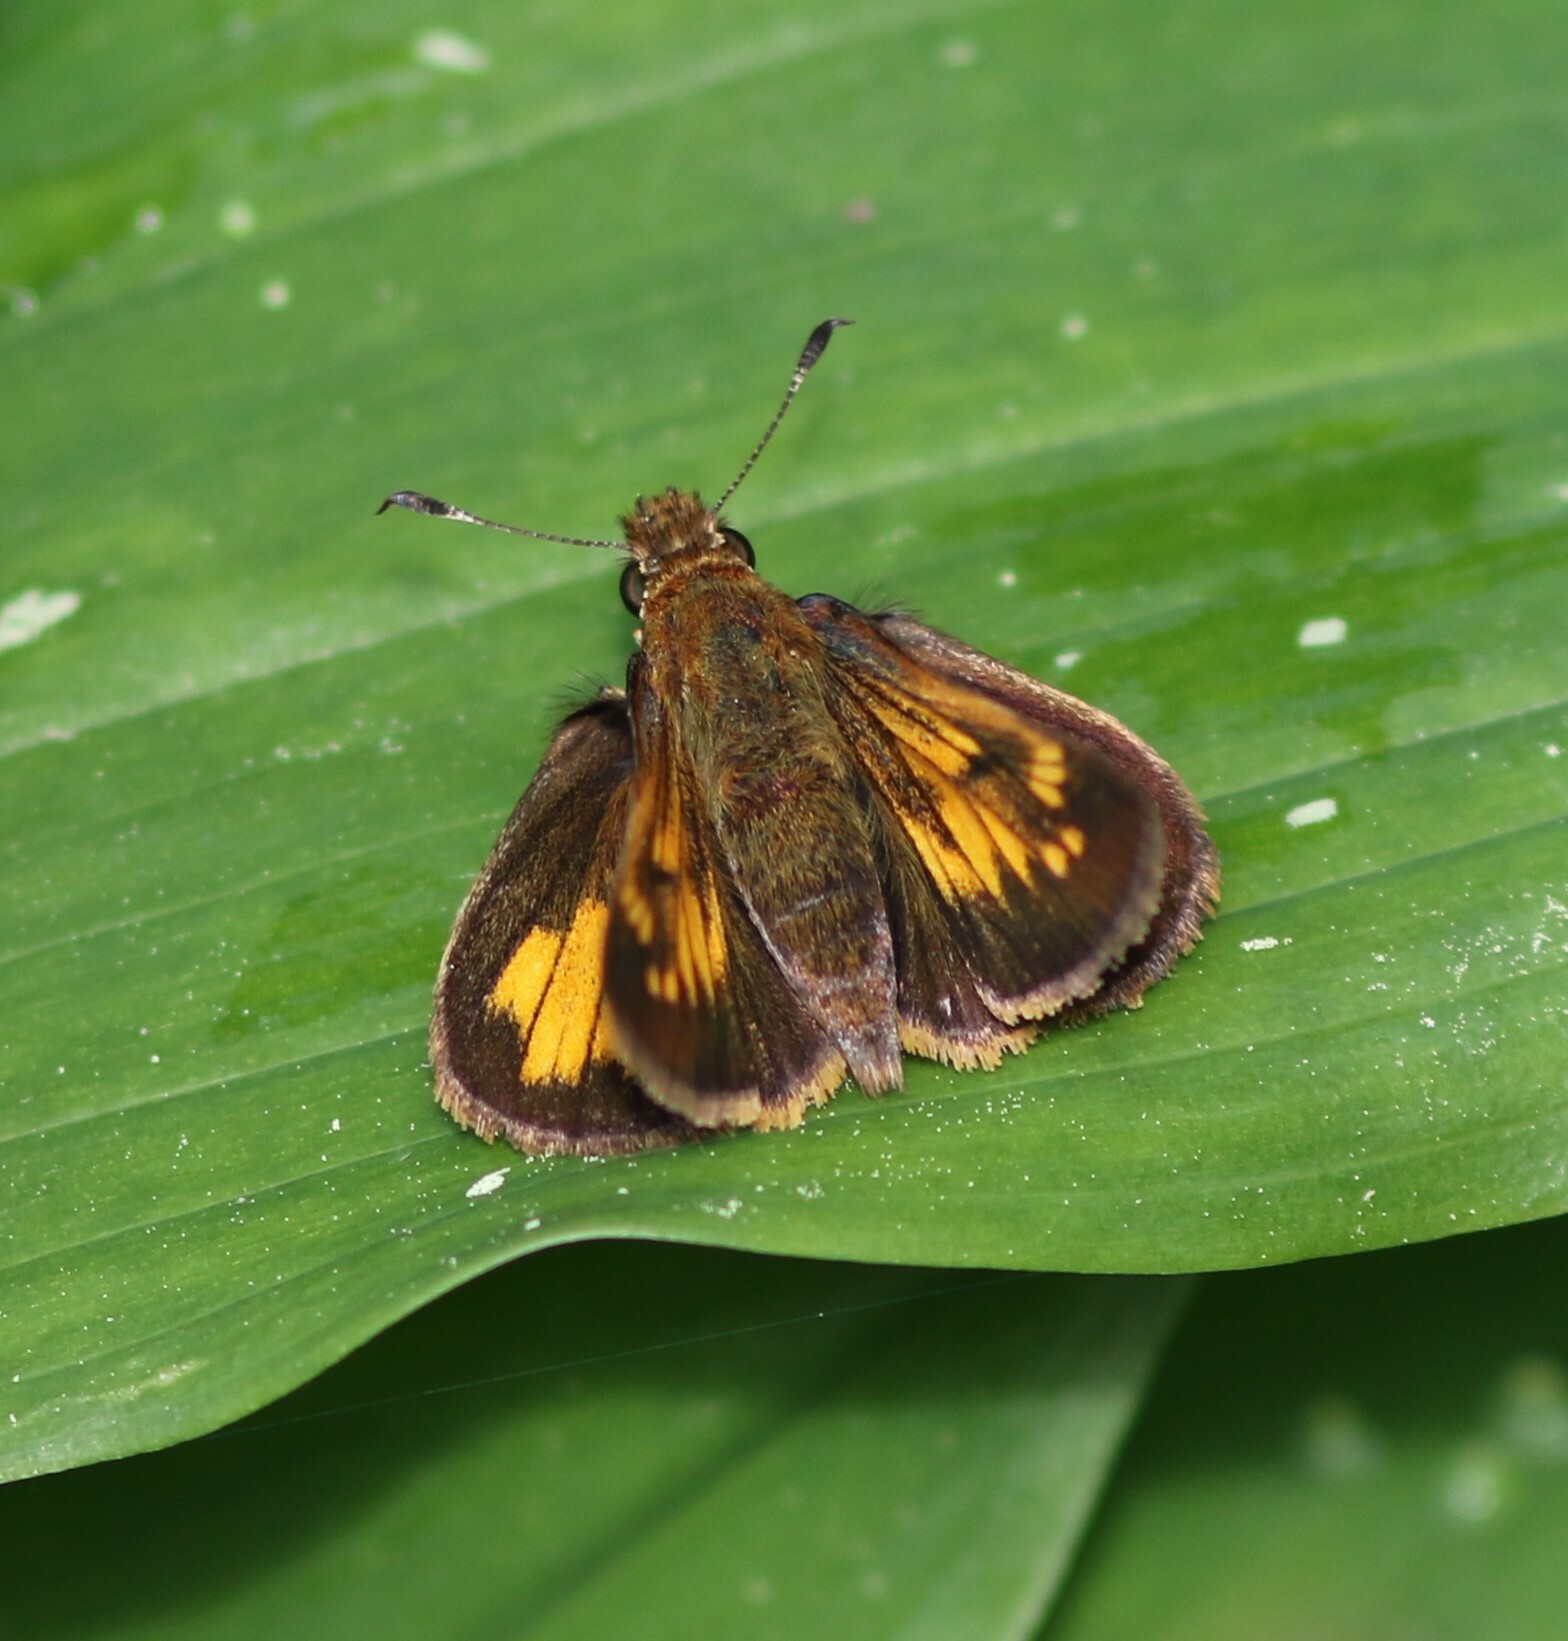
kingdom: Animalia
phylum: Arthropoda
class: Insecta
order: Lepidoptera
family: Hesperiidae
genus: Lon
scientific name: Lon hobomok
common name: Hobomok skipper
